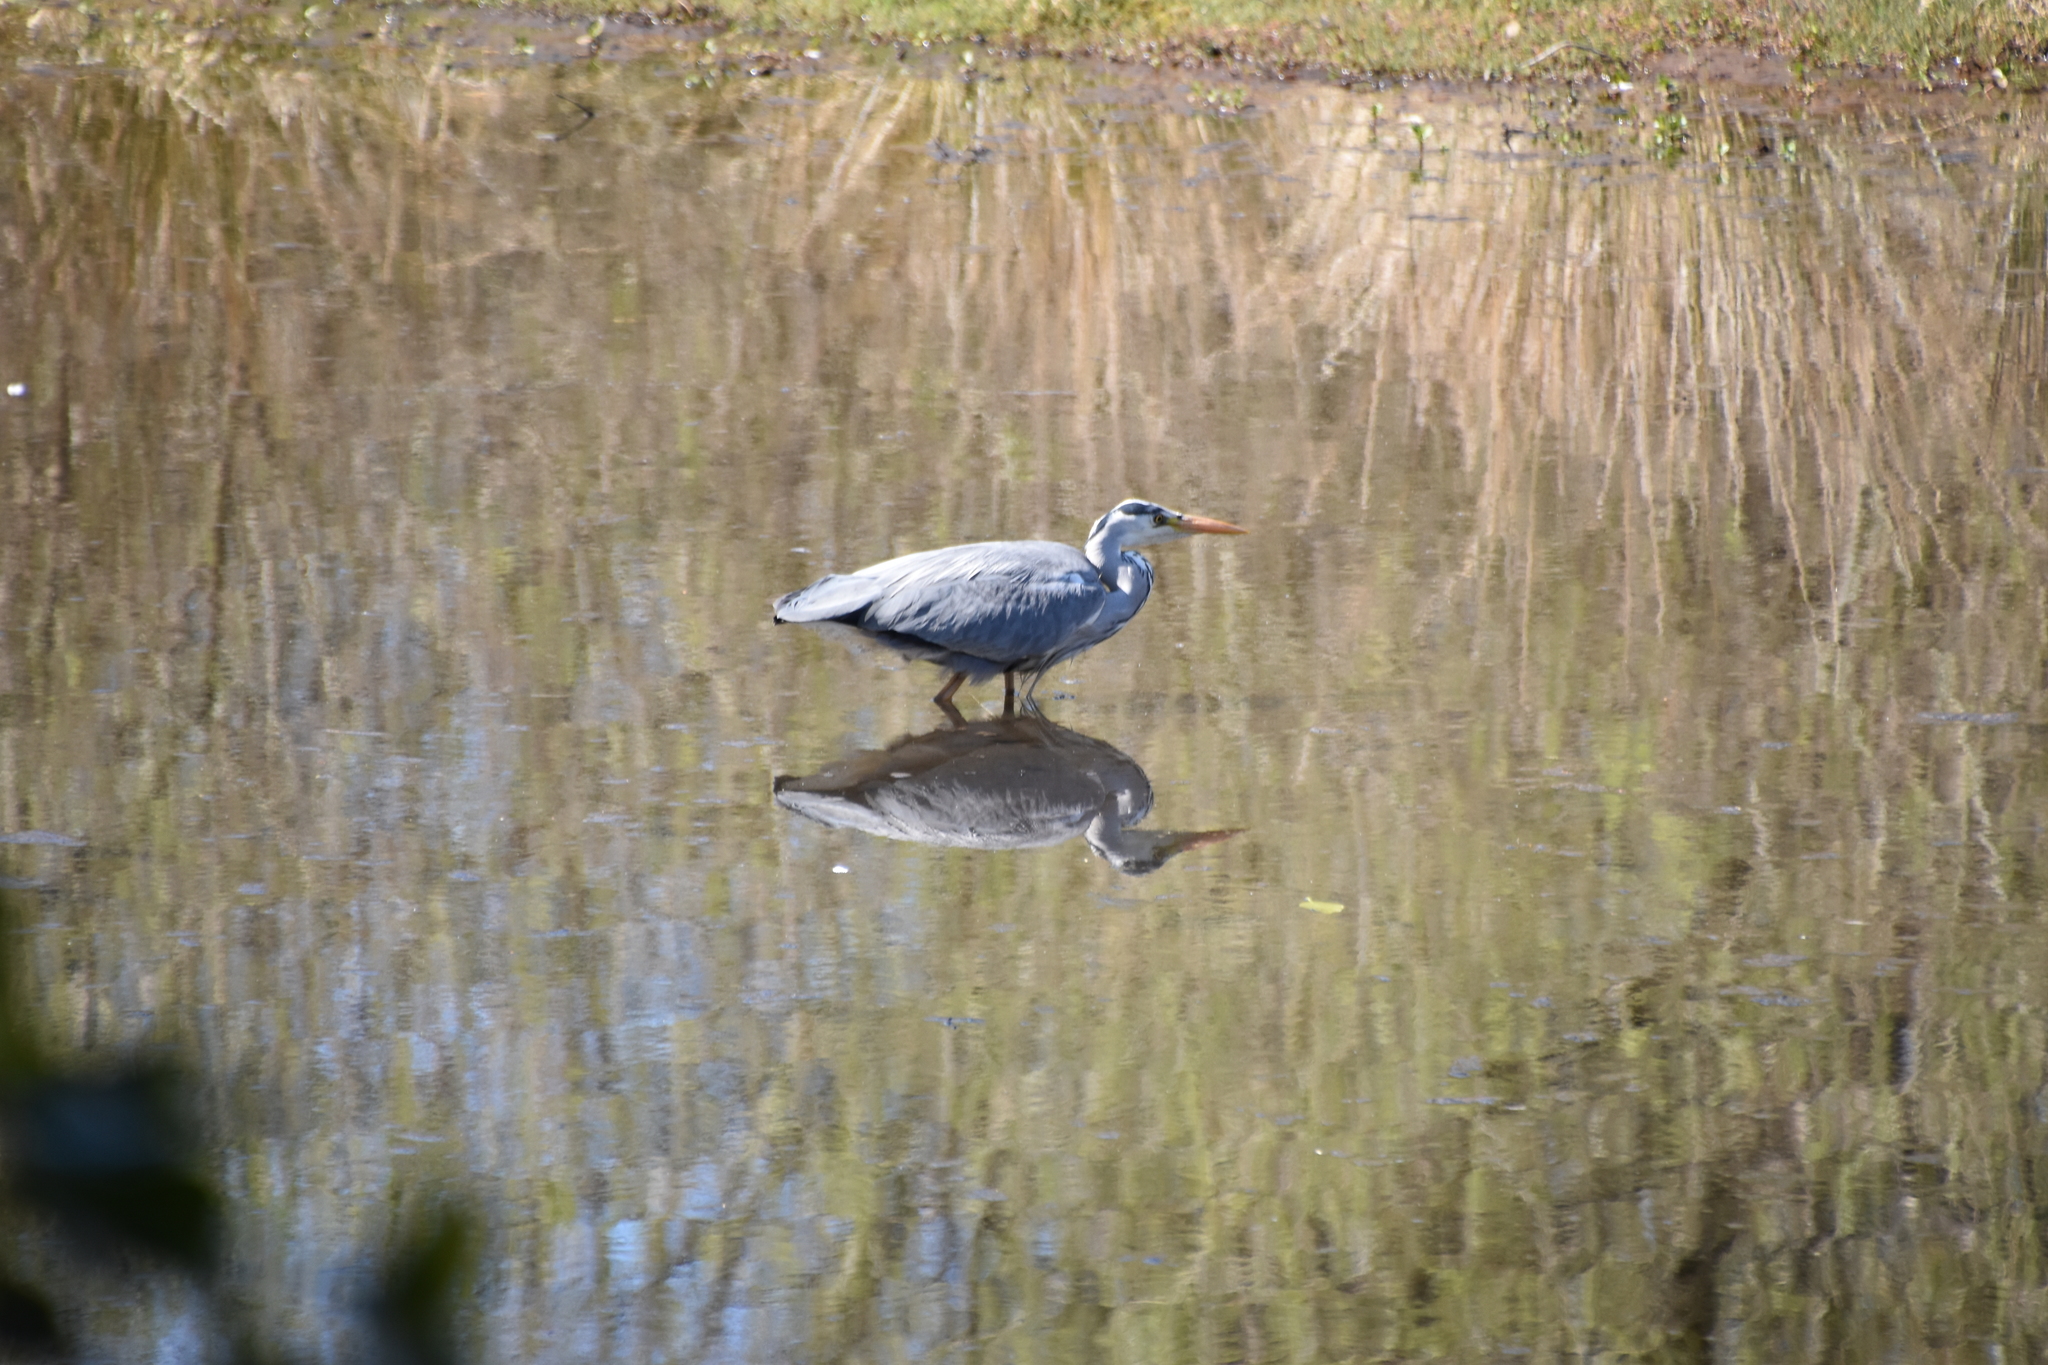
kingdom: Animalia
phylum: Chordata
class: Aves
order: Pelecaniformes
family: Ardeidae
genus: Ardea
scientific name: Ardea cinerea
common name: Grey heron
